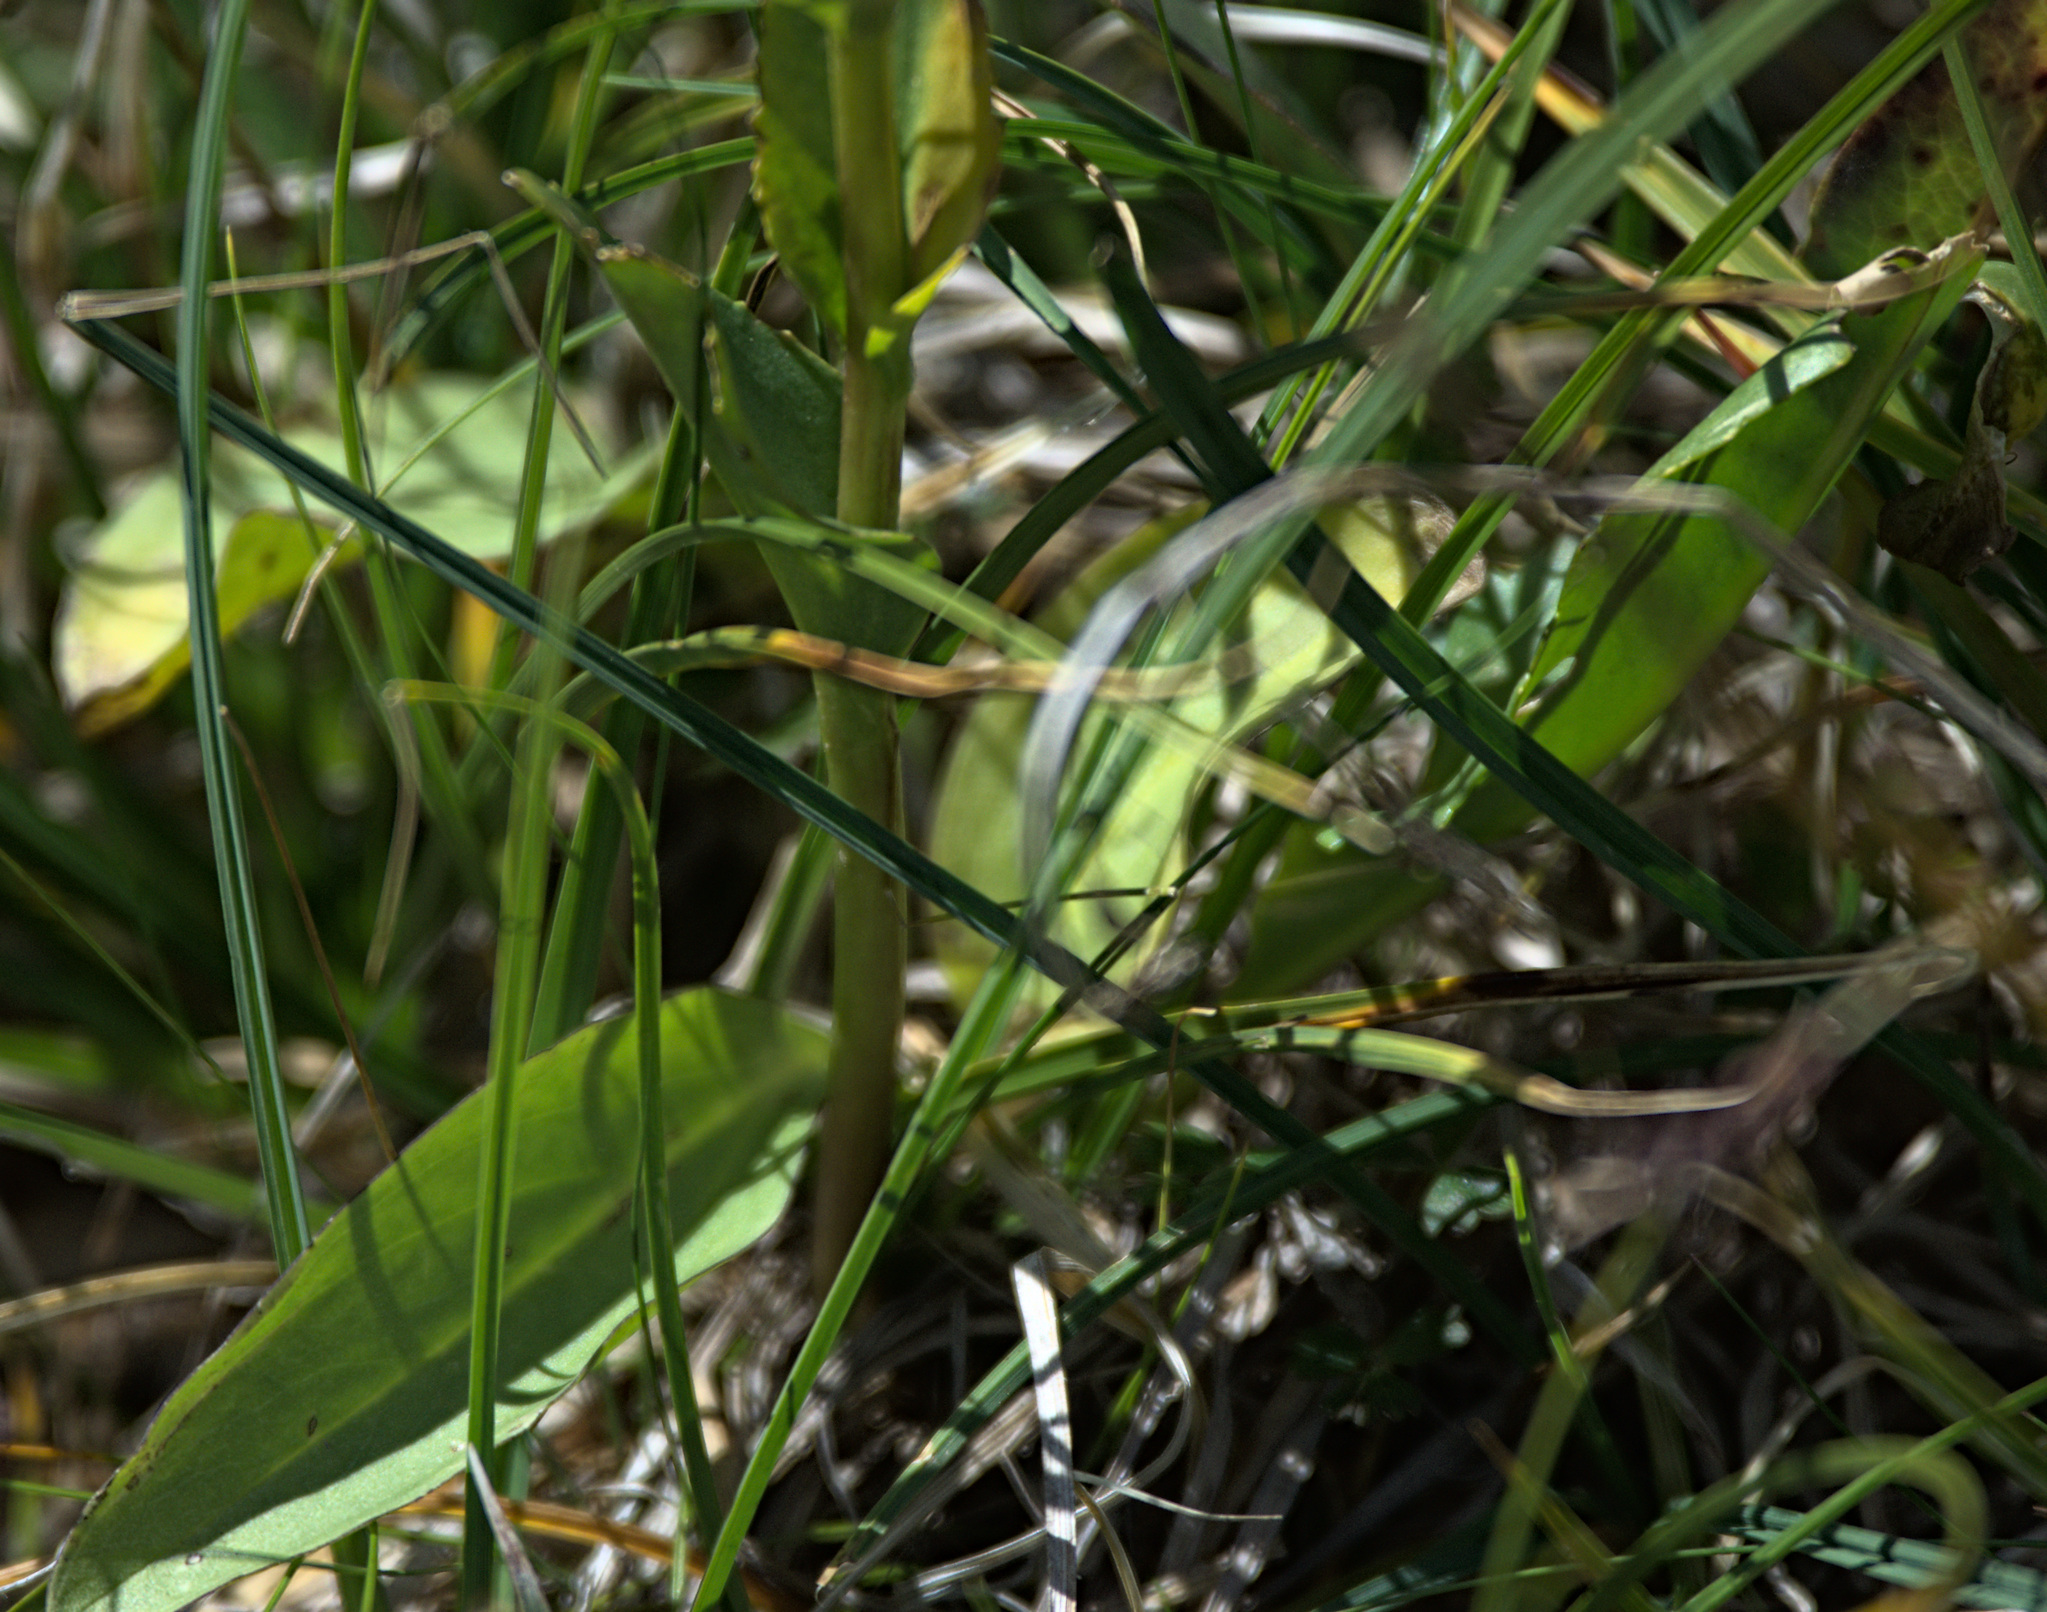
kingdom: Plantae
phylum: Tracheophyta
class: Magnoliopsida
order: Lamiales
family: Plantaginaceae
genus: Lagotis
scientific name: Lagotis integrifolia
